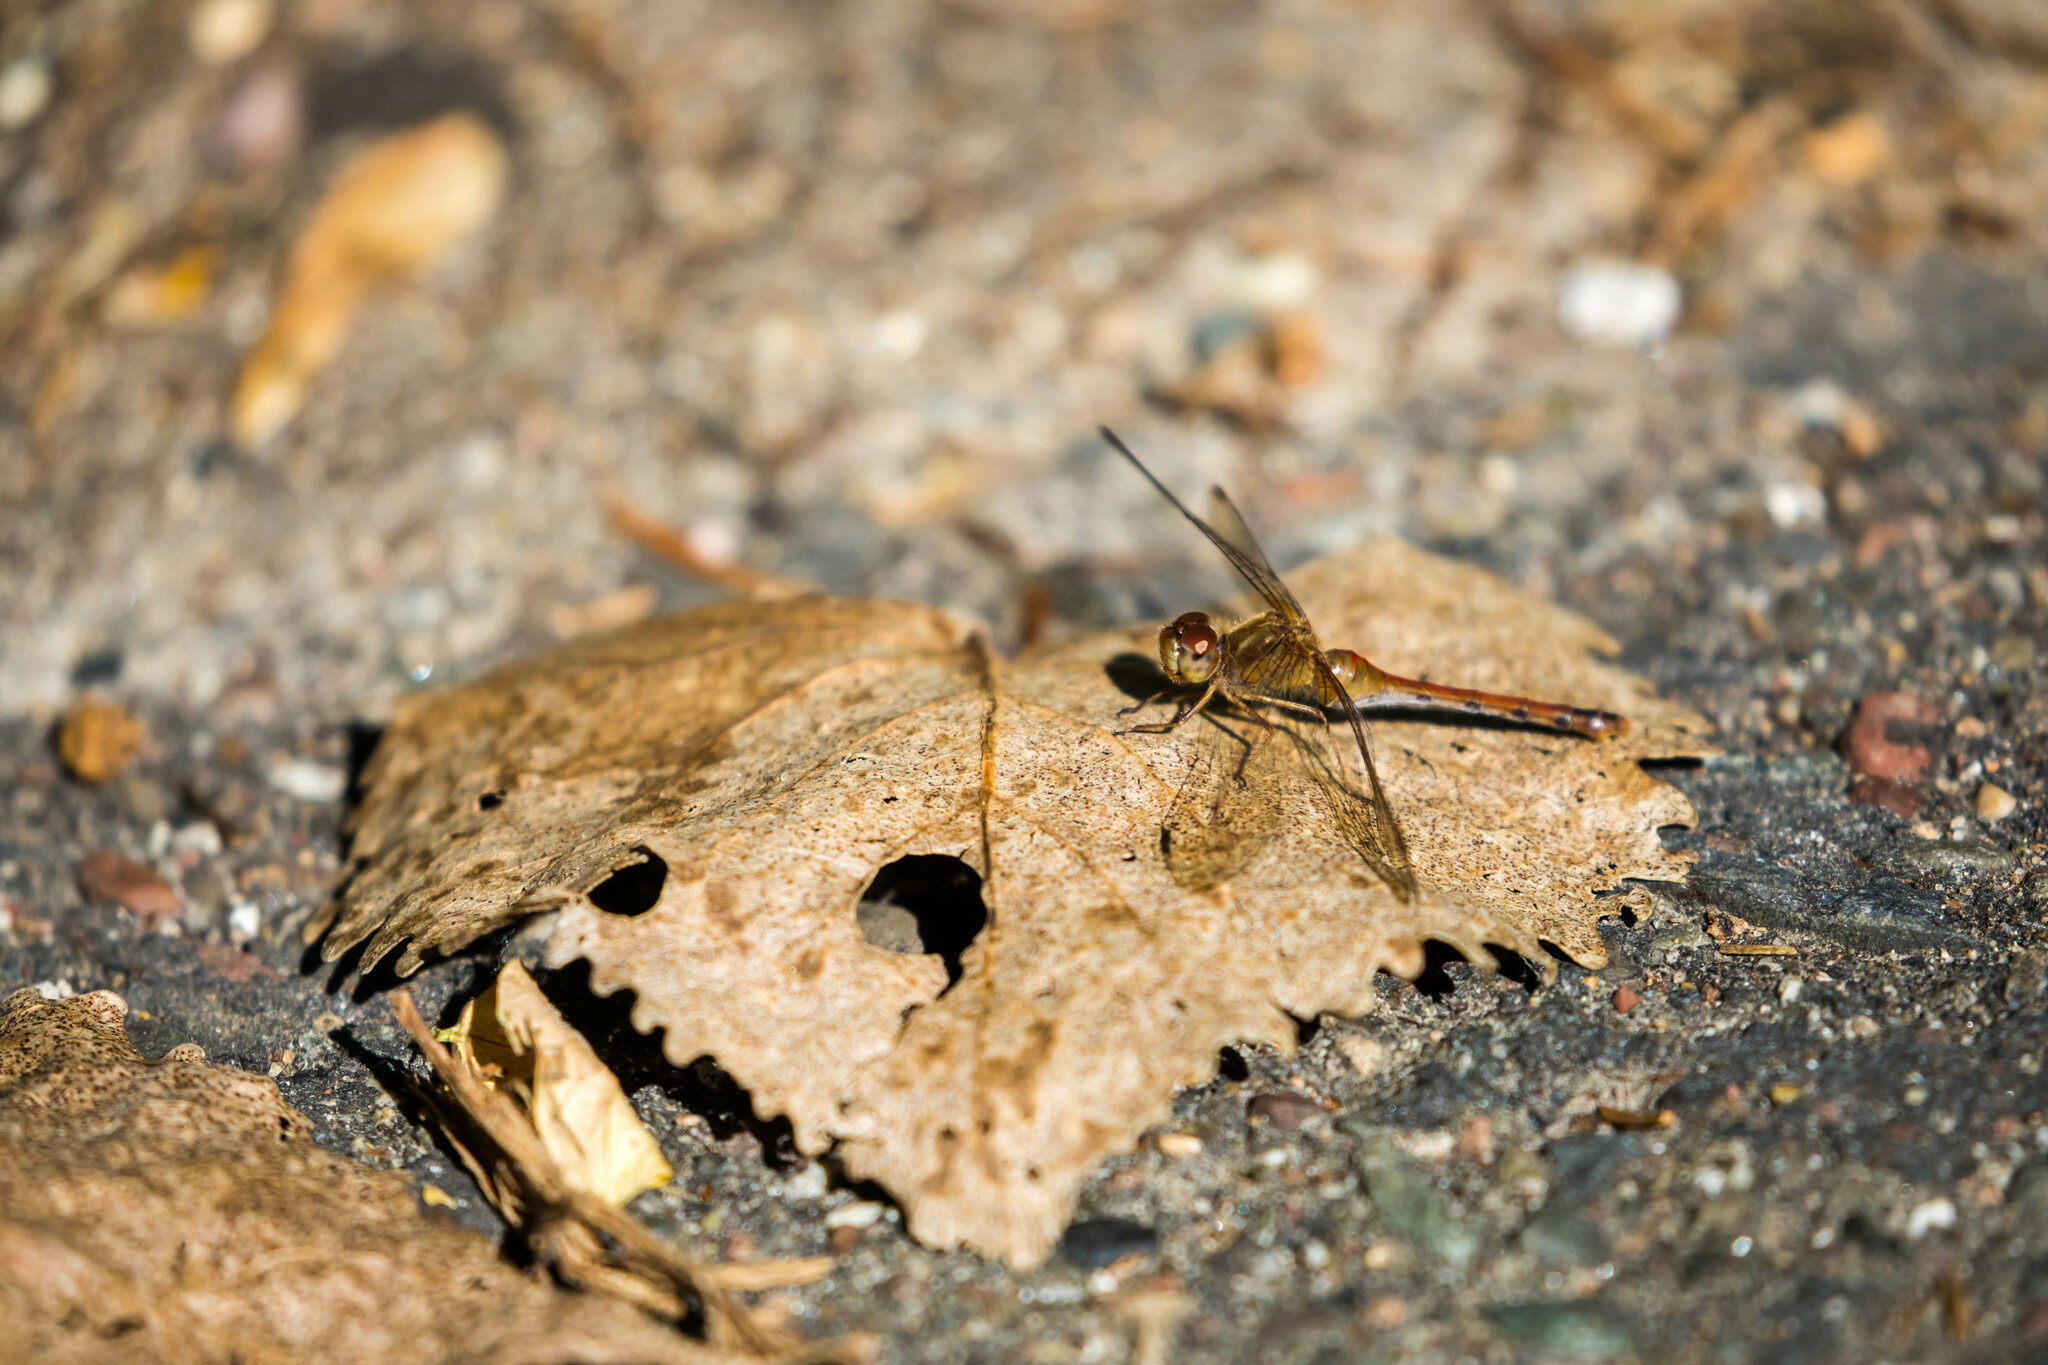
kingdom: Animalia
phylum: Arthropoda
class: Insecta
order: Odonata
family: Libellulidae
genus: Sympetrum
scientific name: Sympetrum vicinum
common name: Autumn meadowhawk
